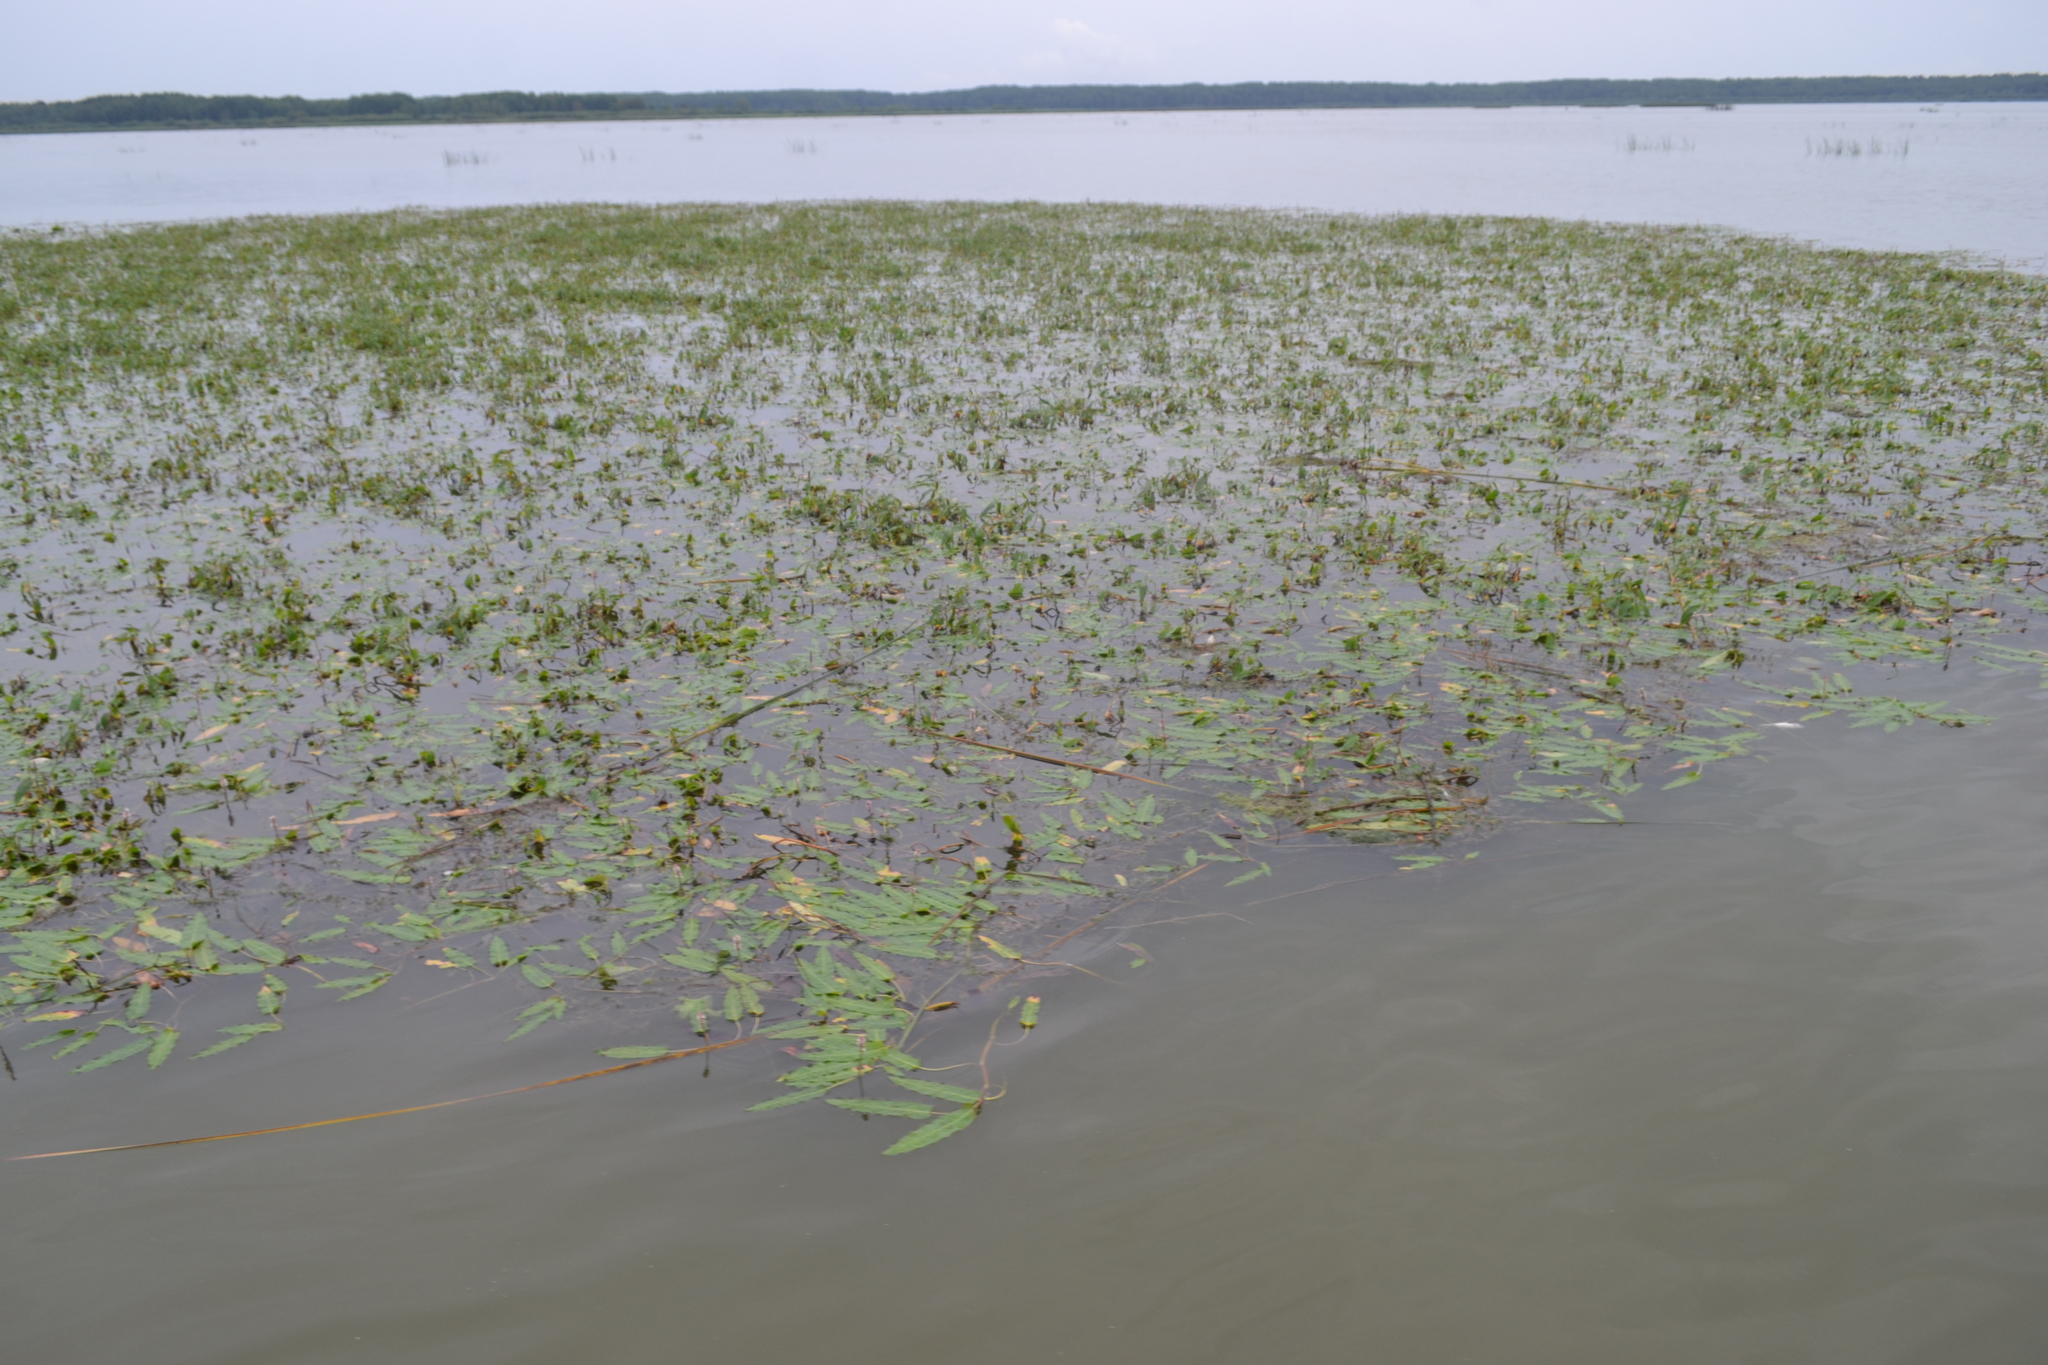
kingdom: Plantae
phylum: Tracheophyta
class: Magnoliopsida
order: Caryophyllales
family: Polygonaceae
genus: Persicaria
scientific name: Persicaria amphibia
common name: Amphibious bistort
